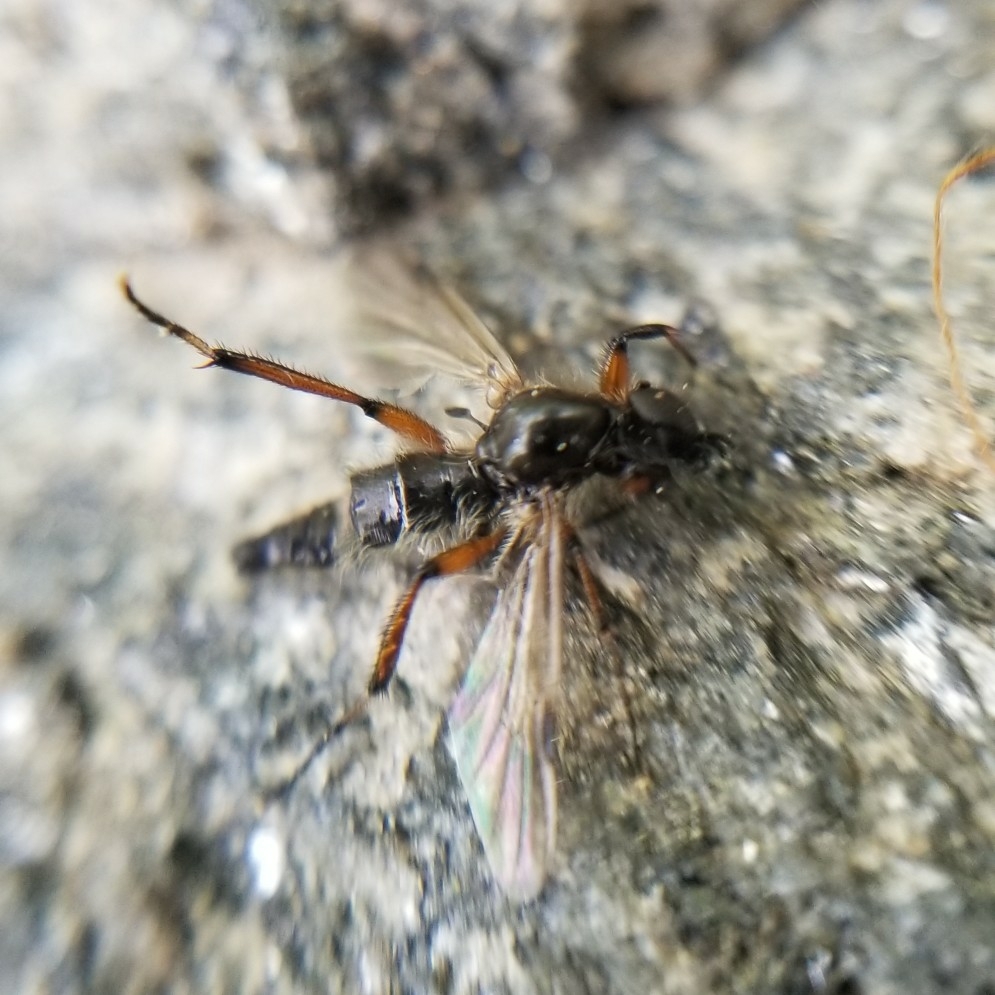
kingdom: Animalia
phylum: Arthropoda
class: Insecta
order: Diptera
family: Bibionidae
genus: Bibio
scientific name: Bibio
